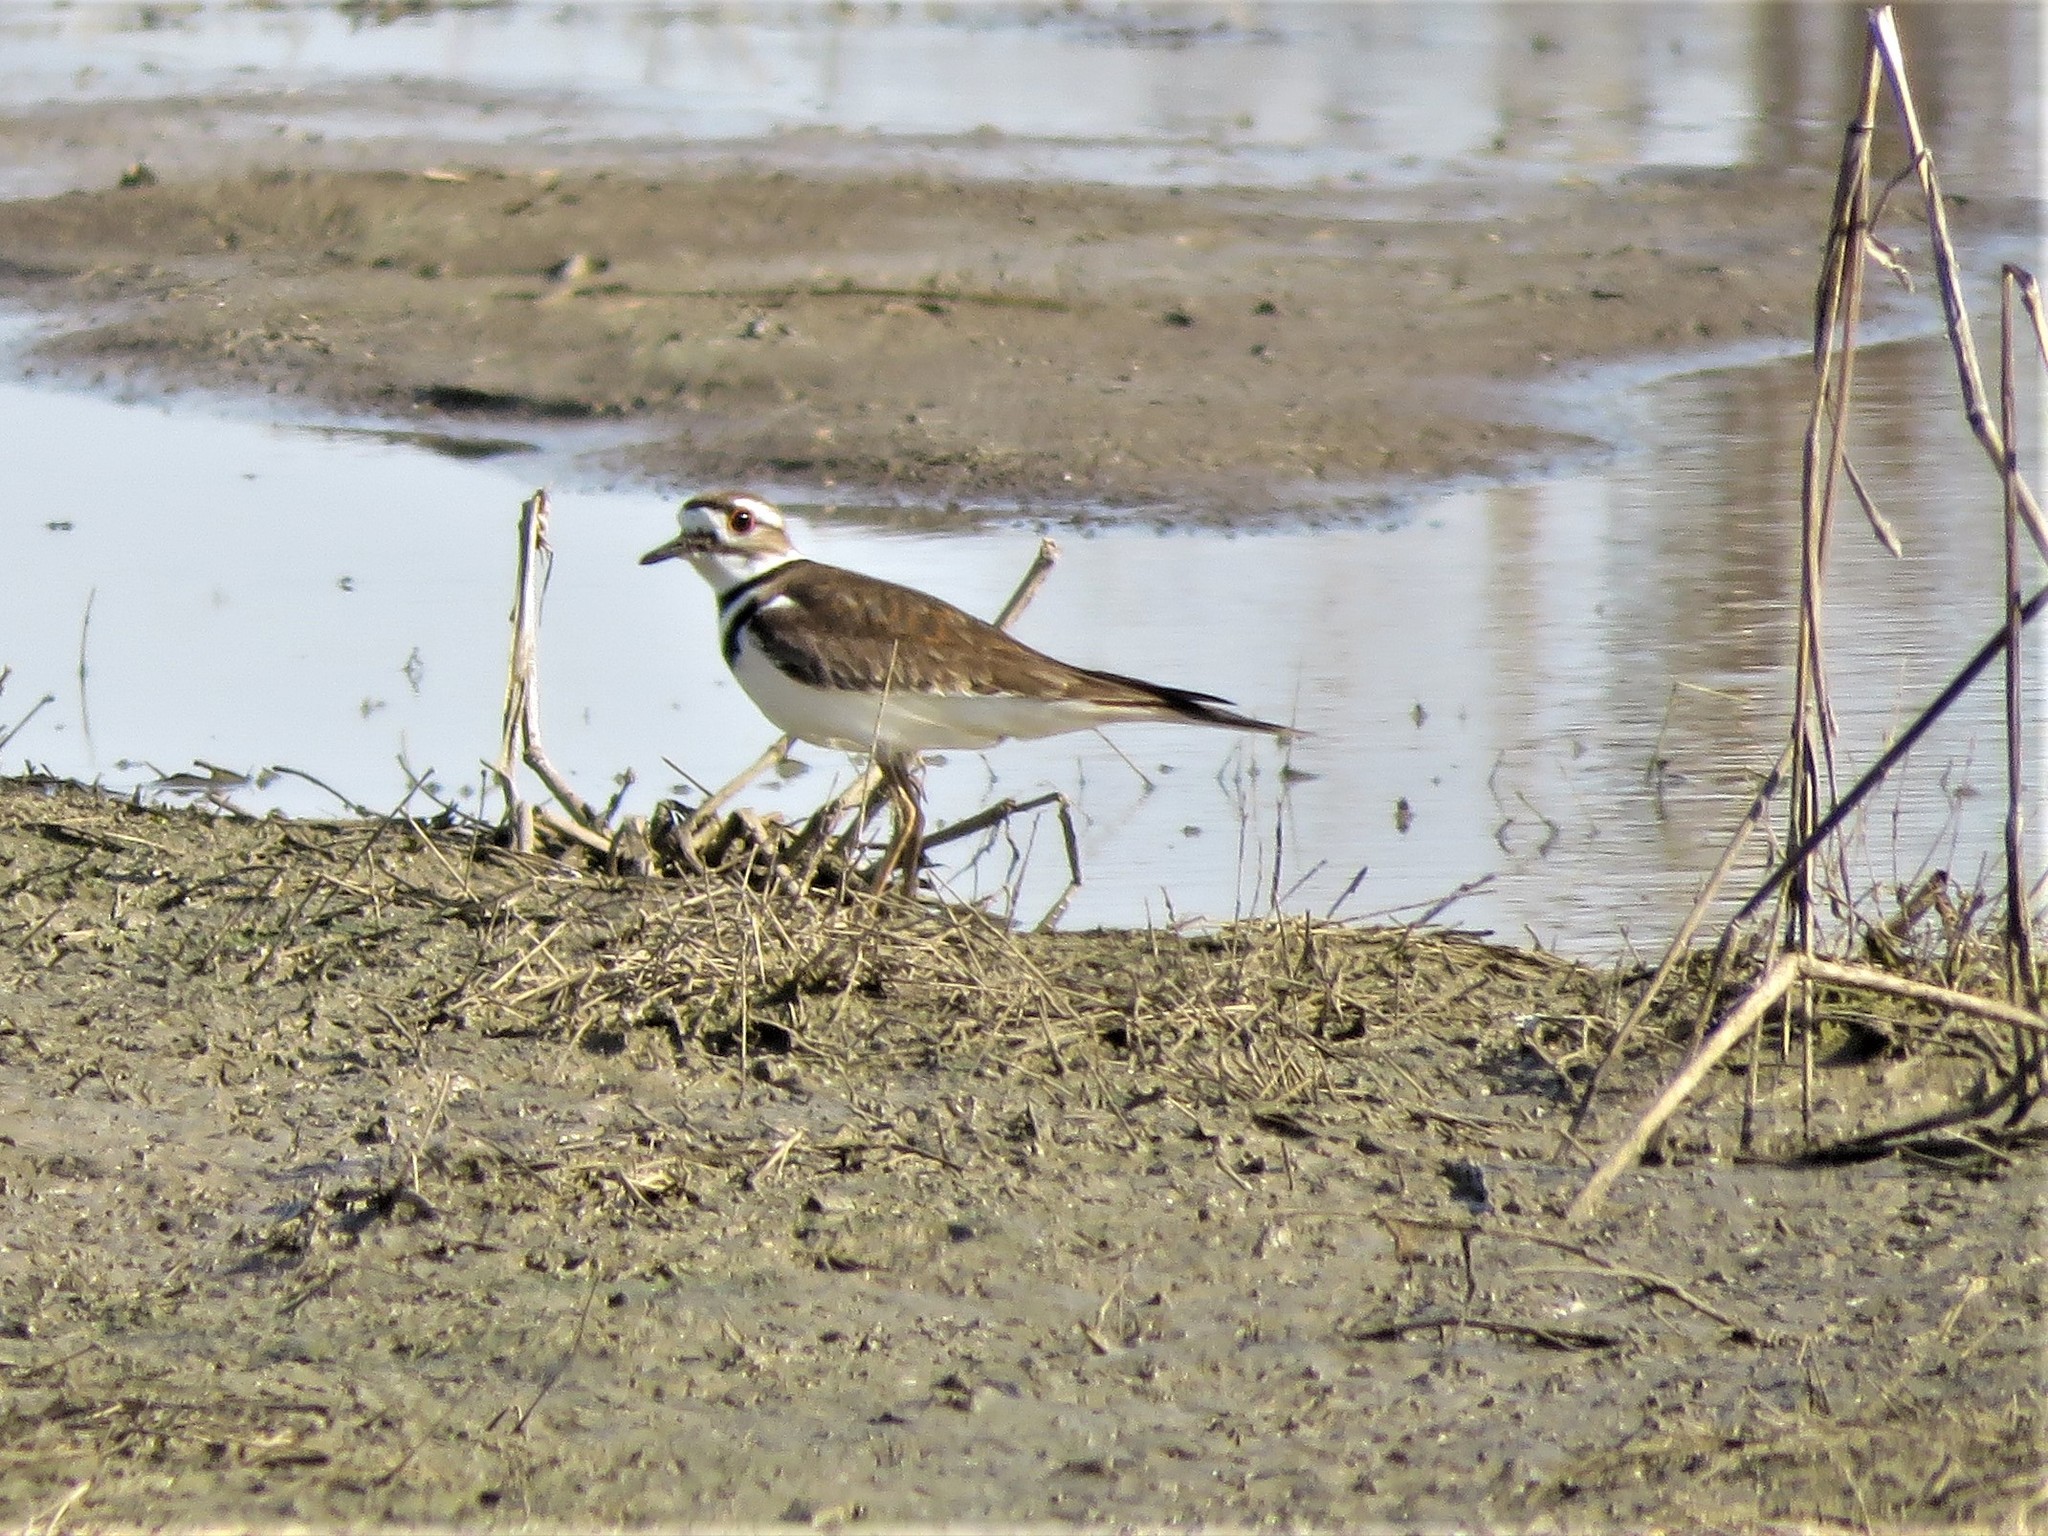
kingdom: Animalia
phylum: Chordata
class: Aves
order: Charadriiformes
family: Charadriidae
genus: Charadrius
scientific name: Charadrius vociferus
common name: Killdeer
